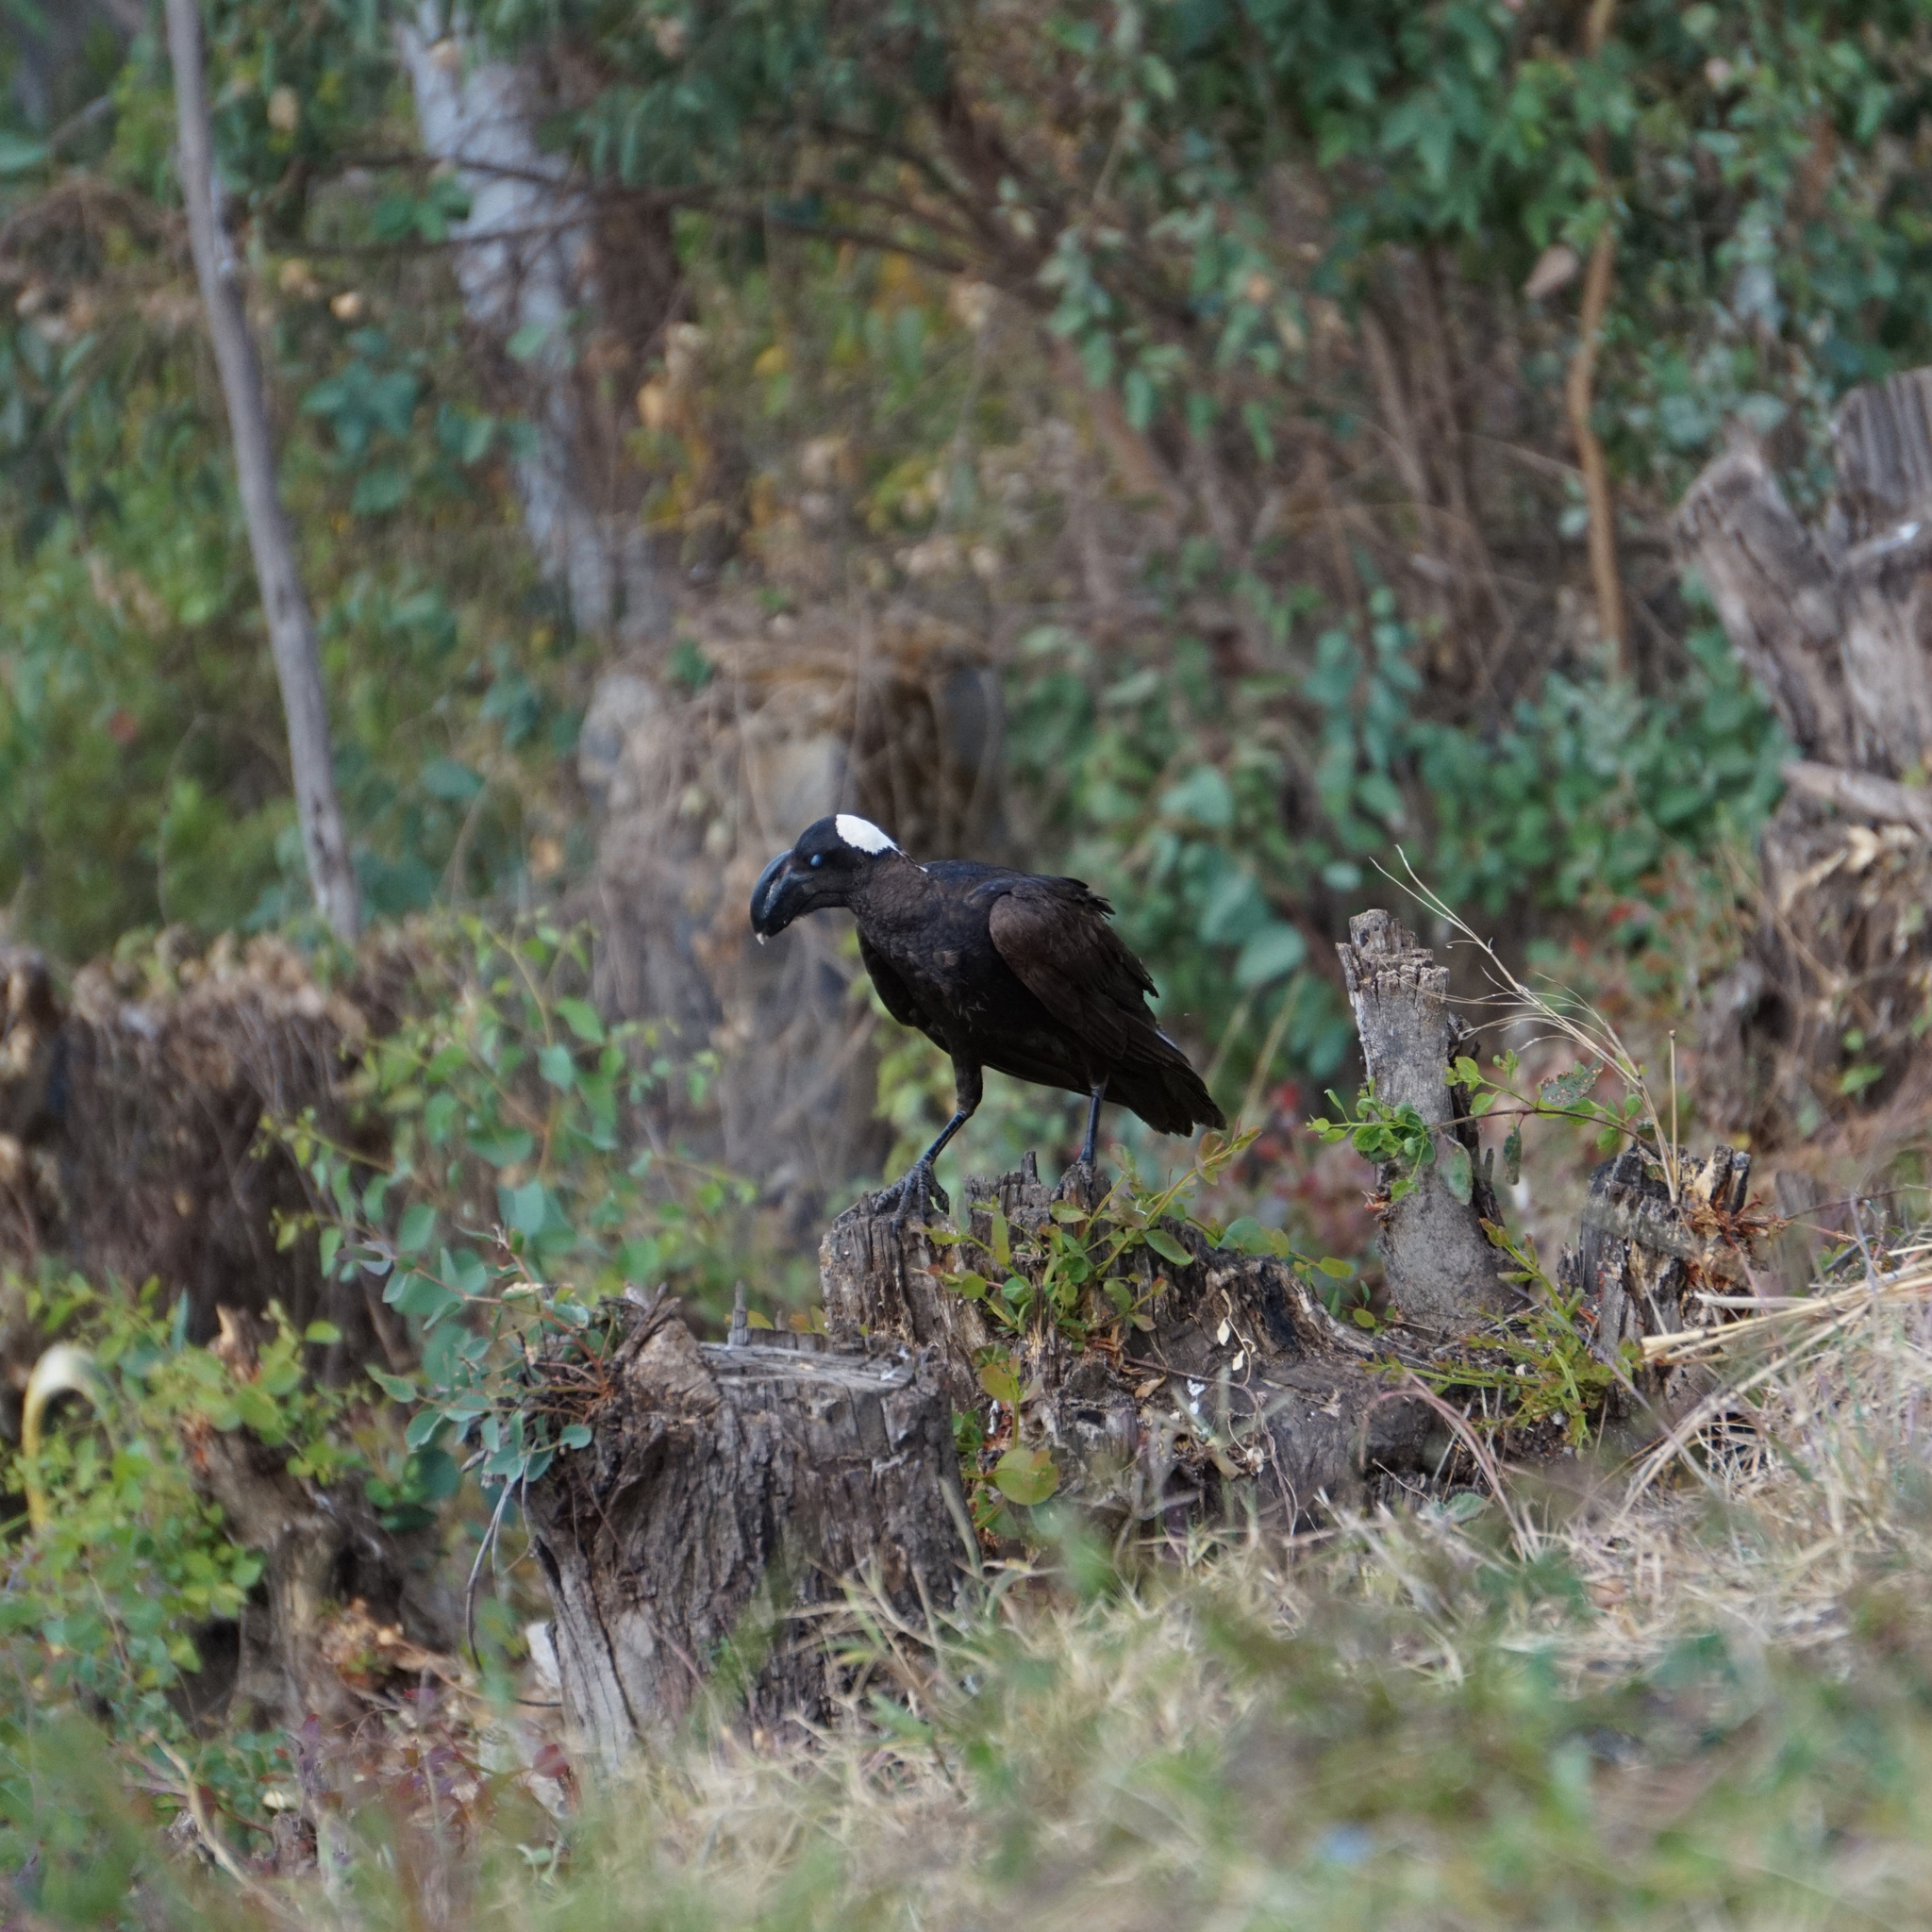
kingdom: Animalia
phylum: Chordata
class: Aves
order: Passeriformes
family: Corvidae
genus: Corvus
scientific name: Corvus crassirostris
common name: Thick-billed raven
